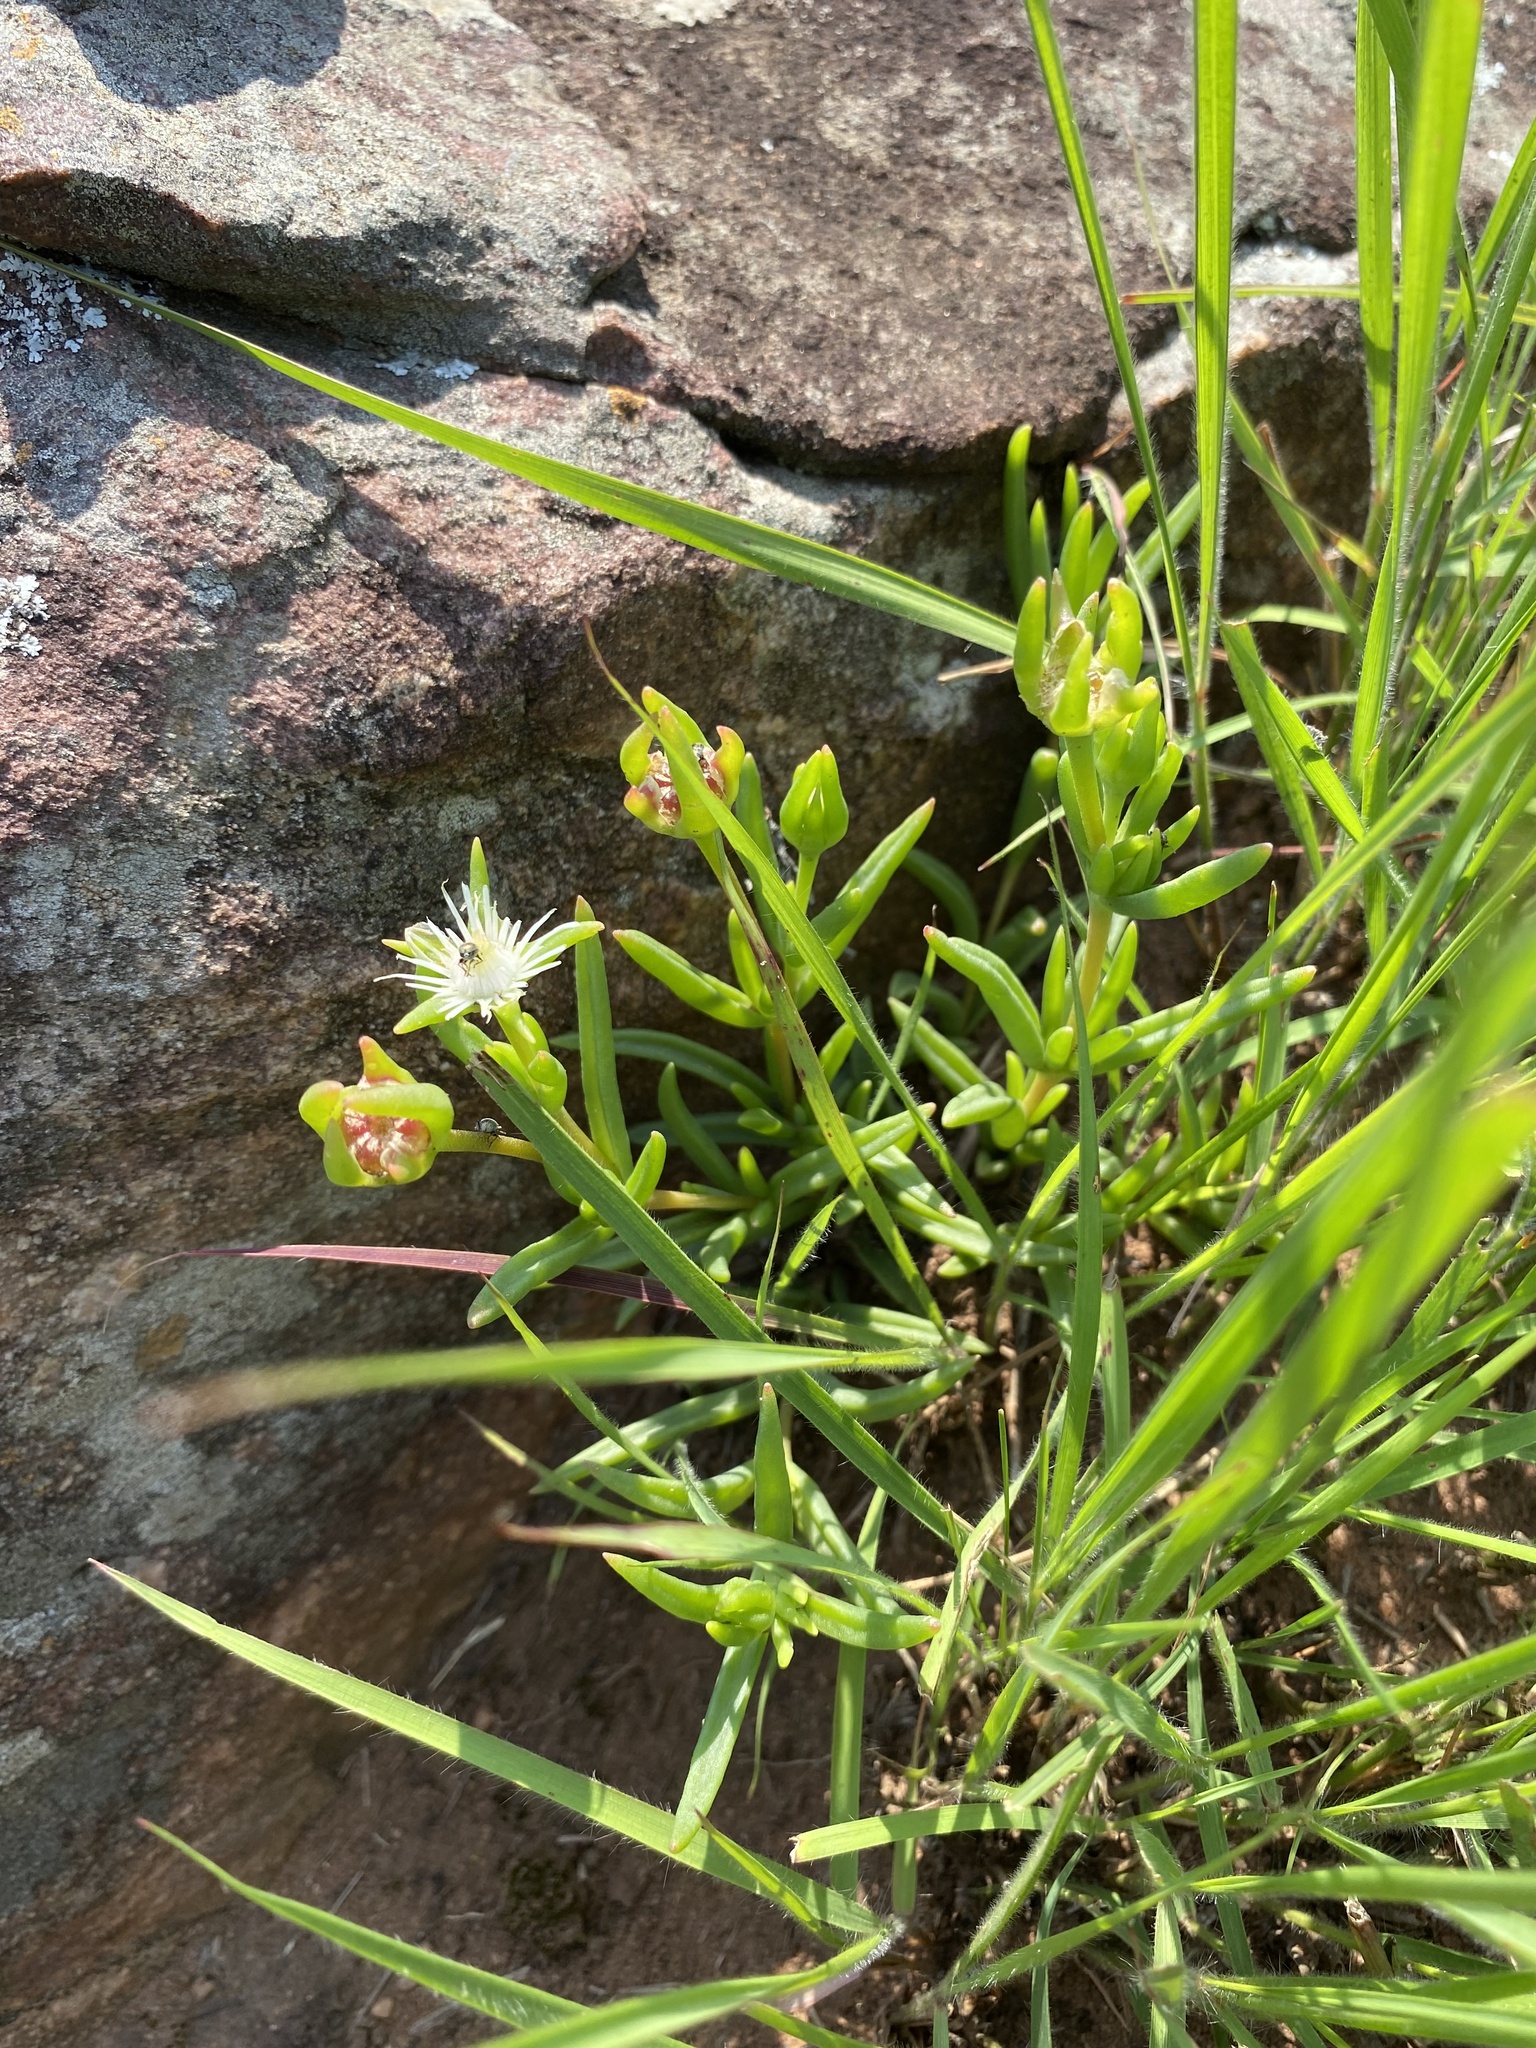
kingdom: Plantae
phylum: Tracheophyta
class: Magnoliopsida
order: Caryophyllales
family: Aizoaceae
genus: Delosperma
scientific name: Delosperma lineare
